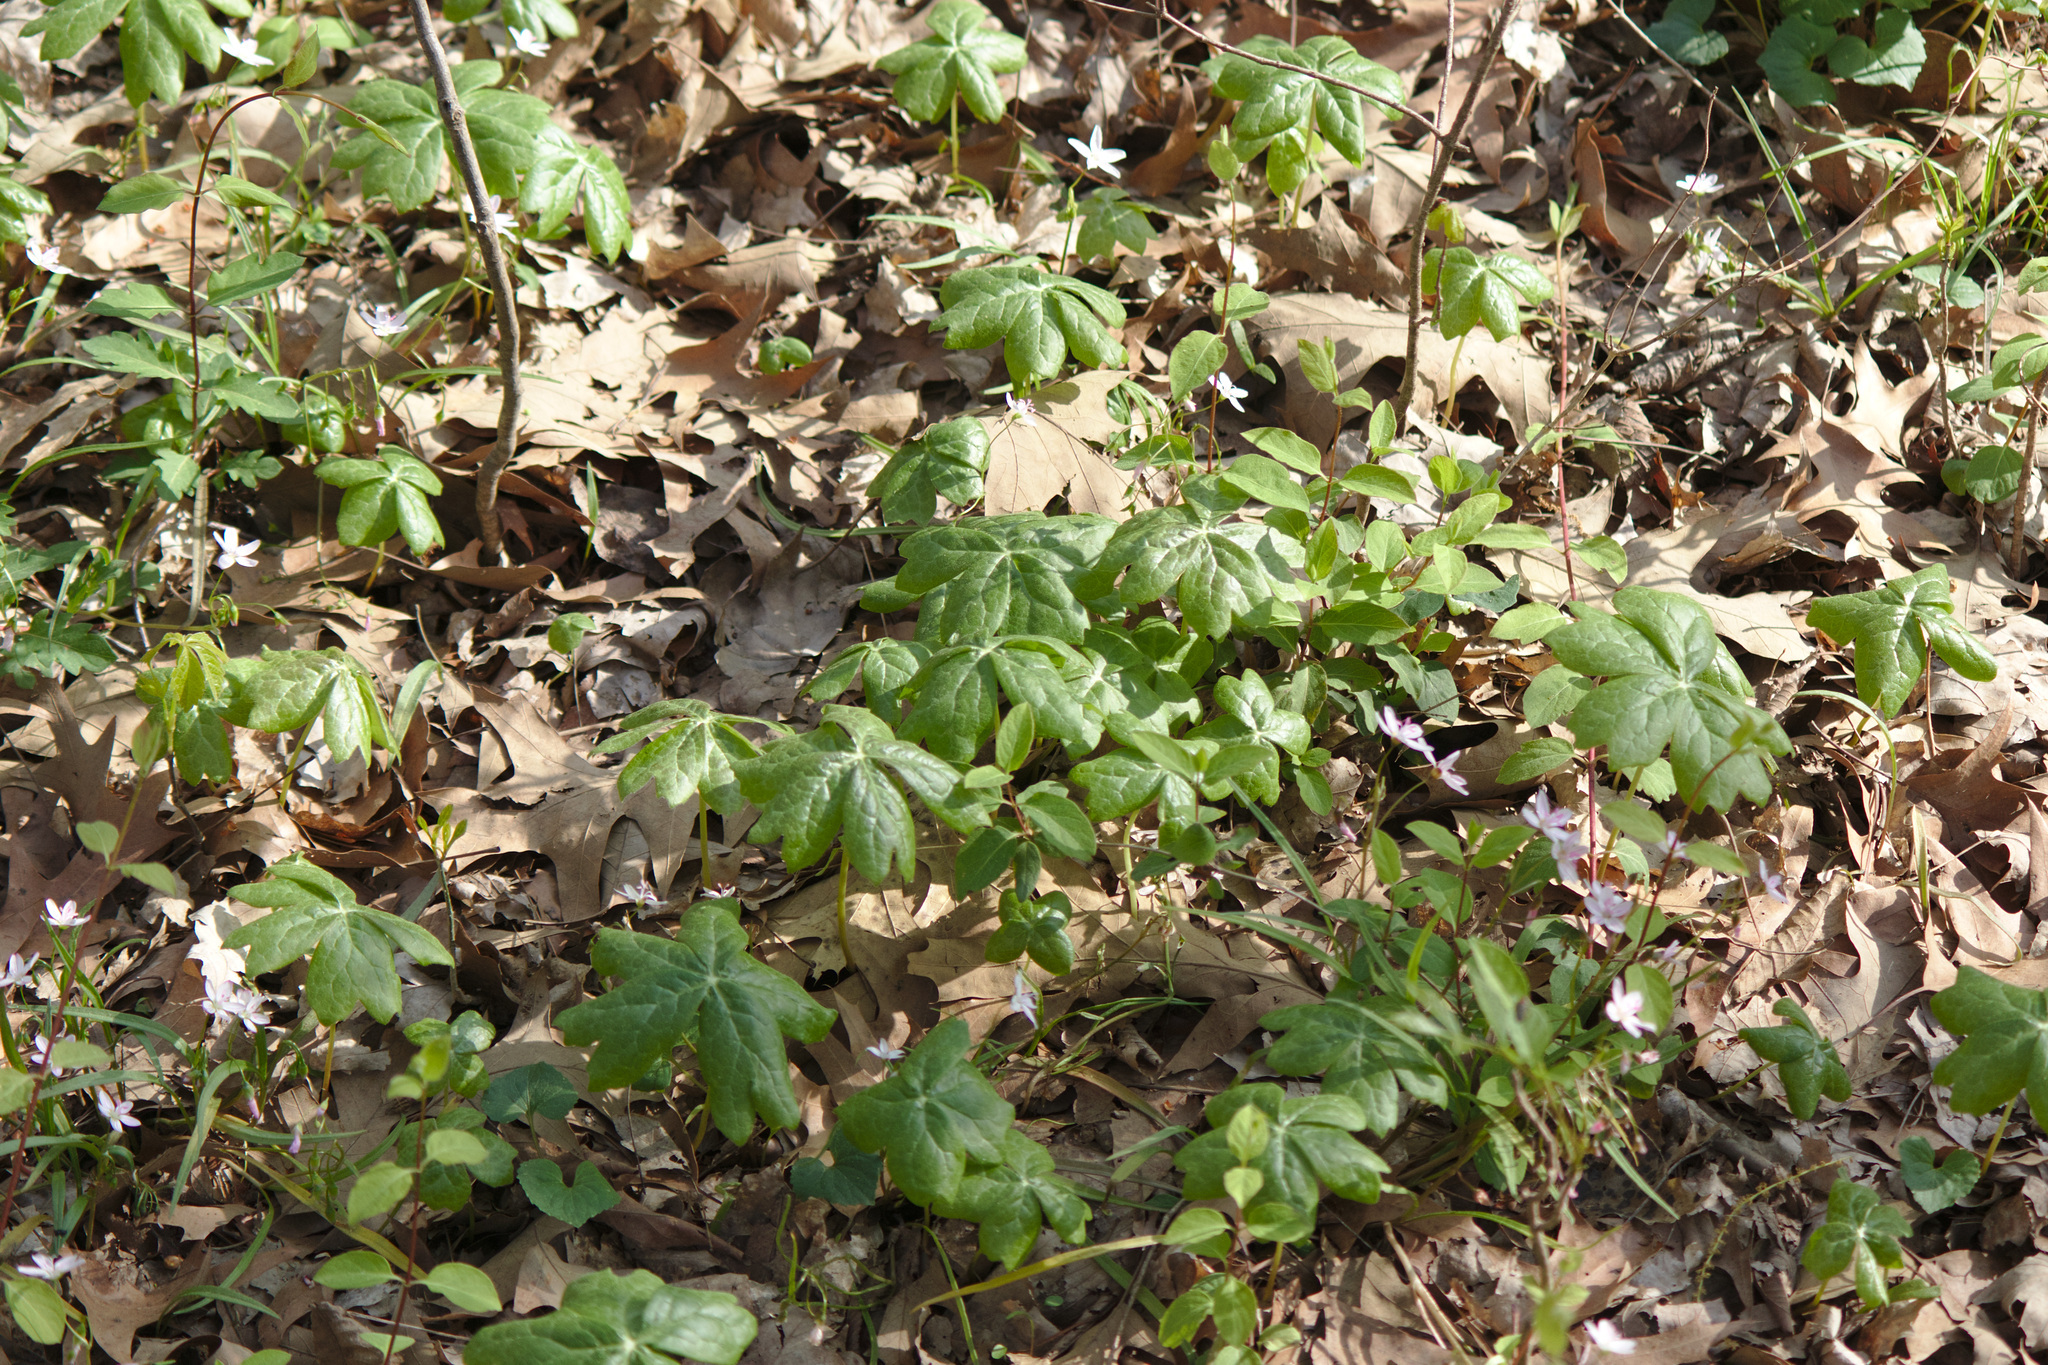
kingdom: Plantae
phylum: Tracheophyta
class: Magnoliopsida
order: Ranunculales
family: Berberidaceae
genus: Podophyllum
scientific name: Podophyllum peltatum
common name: Wild mandrake
